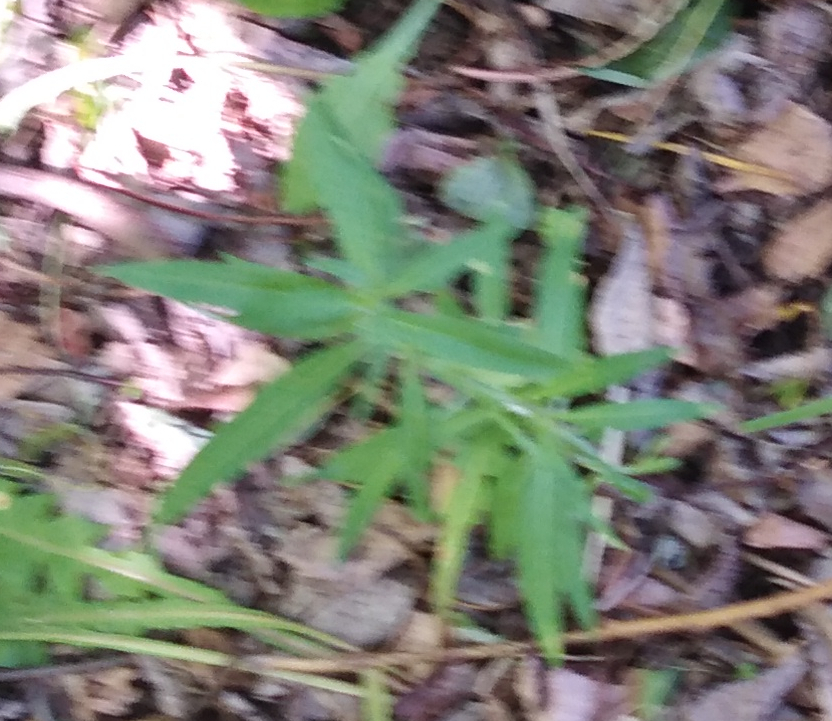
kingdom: Plantae
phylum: Tracheophyta
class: Magnoliopsida
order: Myrtales
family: Onagraceae
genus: Chamaenerion
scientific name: Chamaenerion angustifolium
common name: Fireweed
